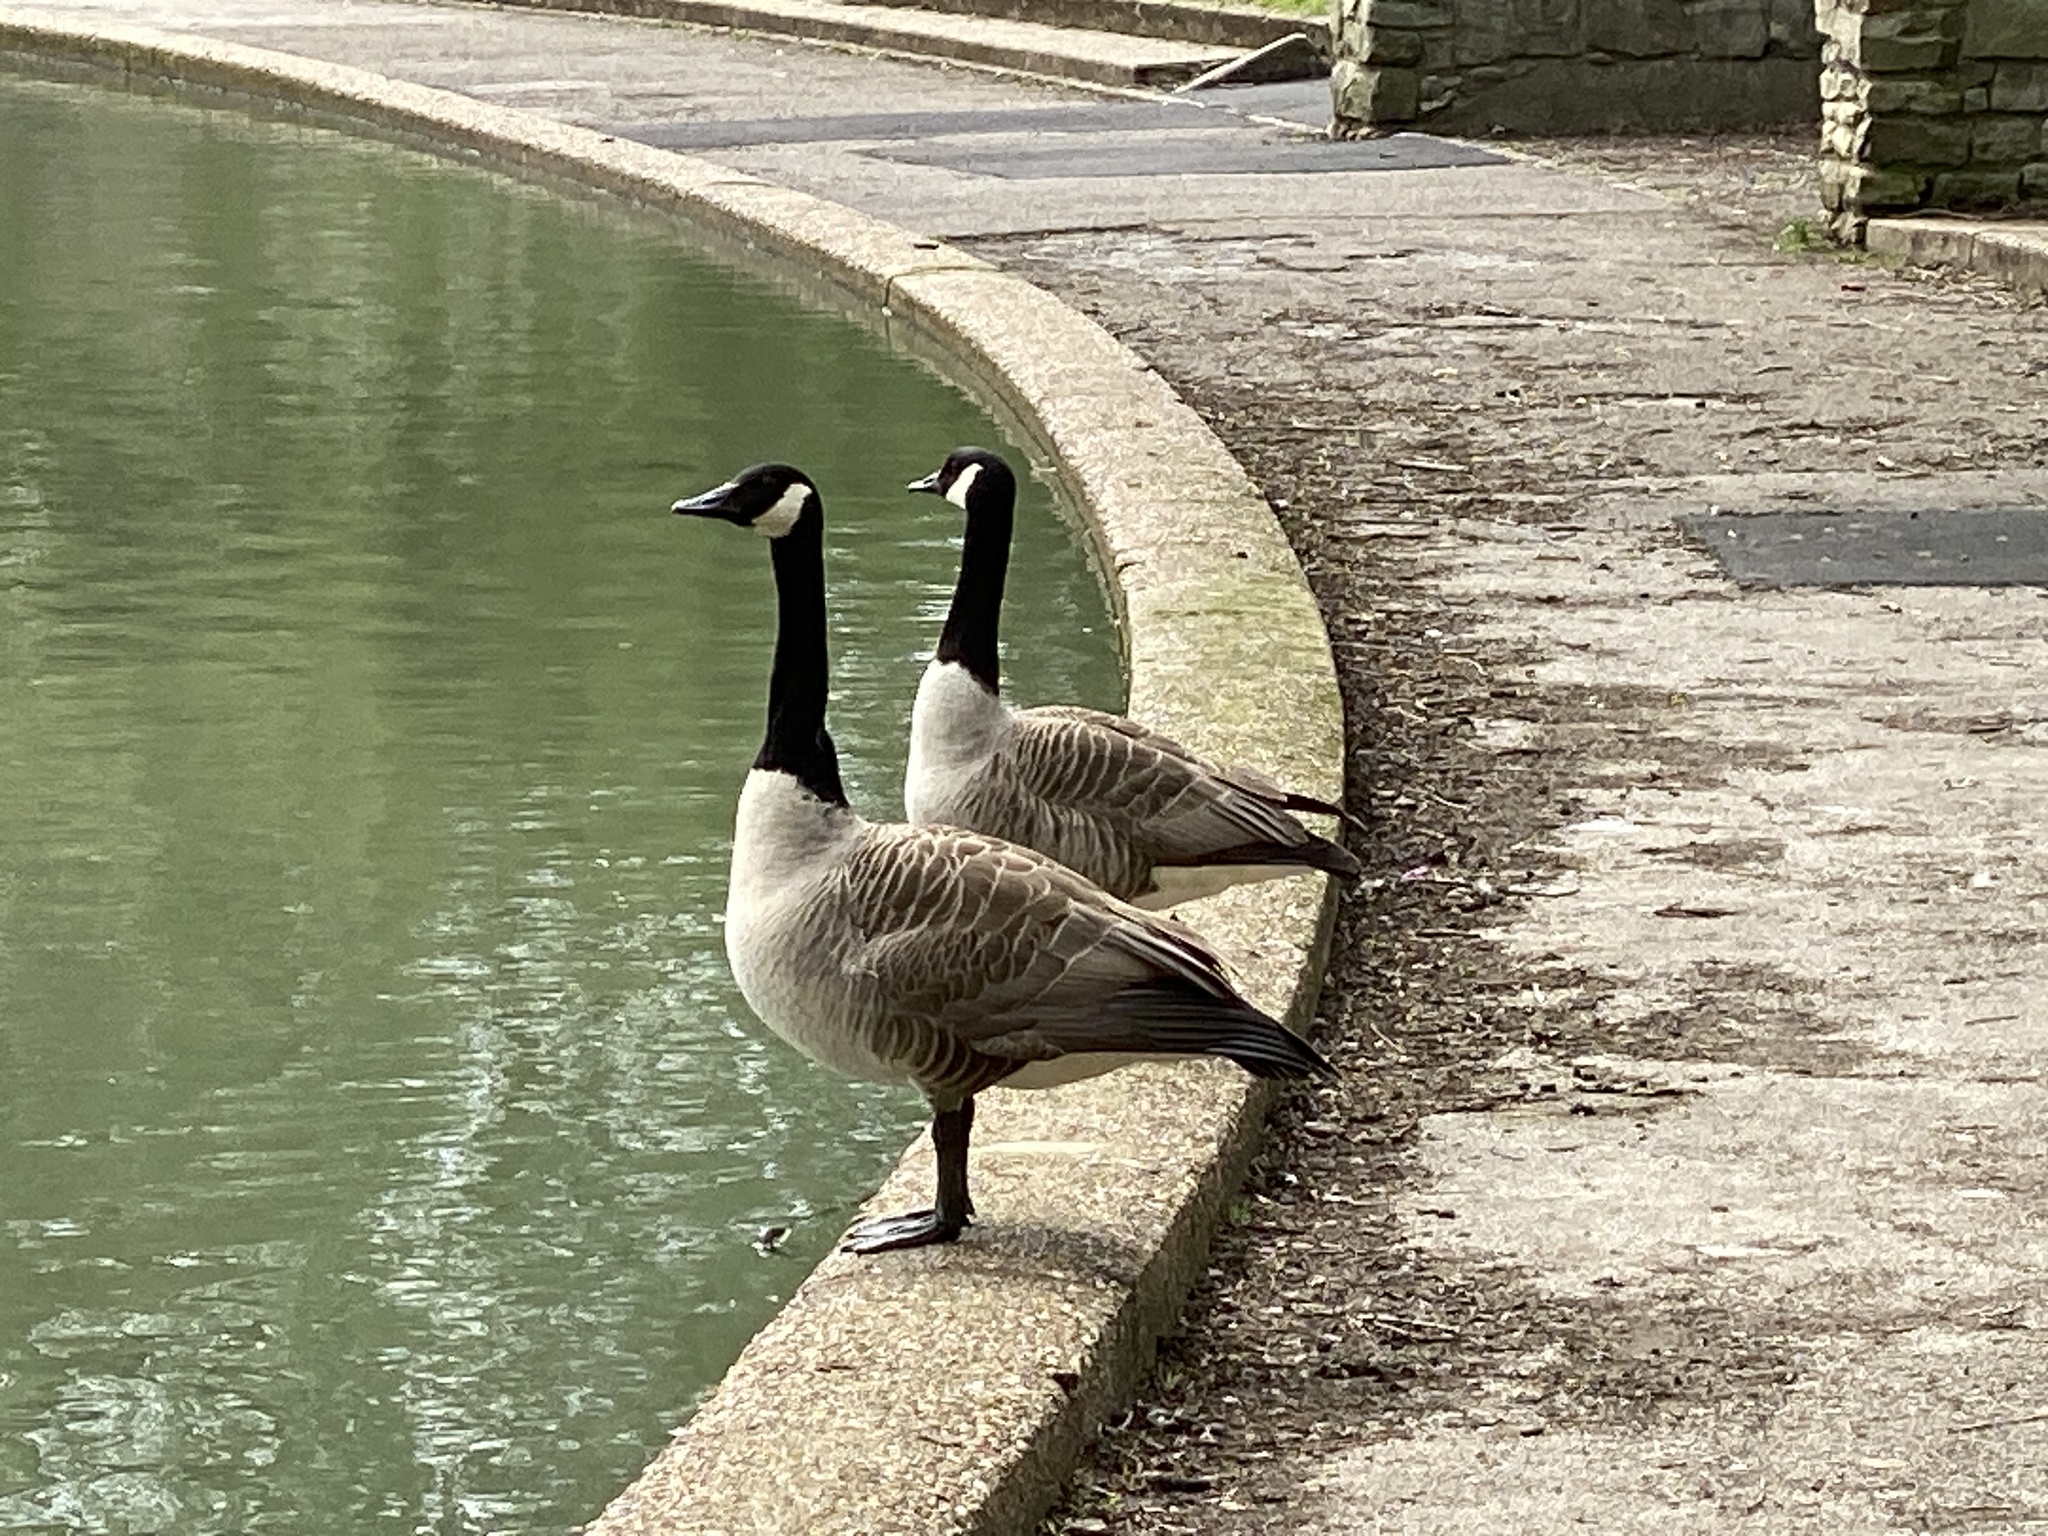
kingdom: Animalia
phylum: Chordata
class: Aves
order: Anseriformes
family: Anatidae
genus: Branta
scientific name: Branta canadensis
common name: Canada goose
